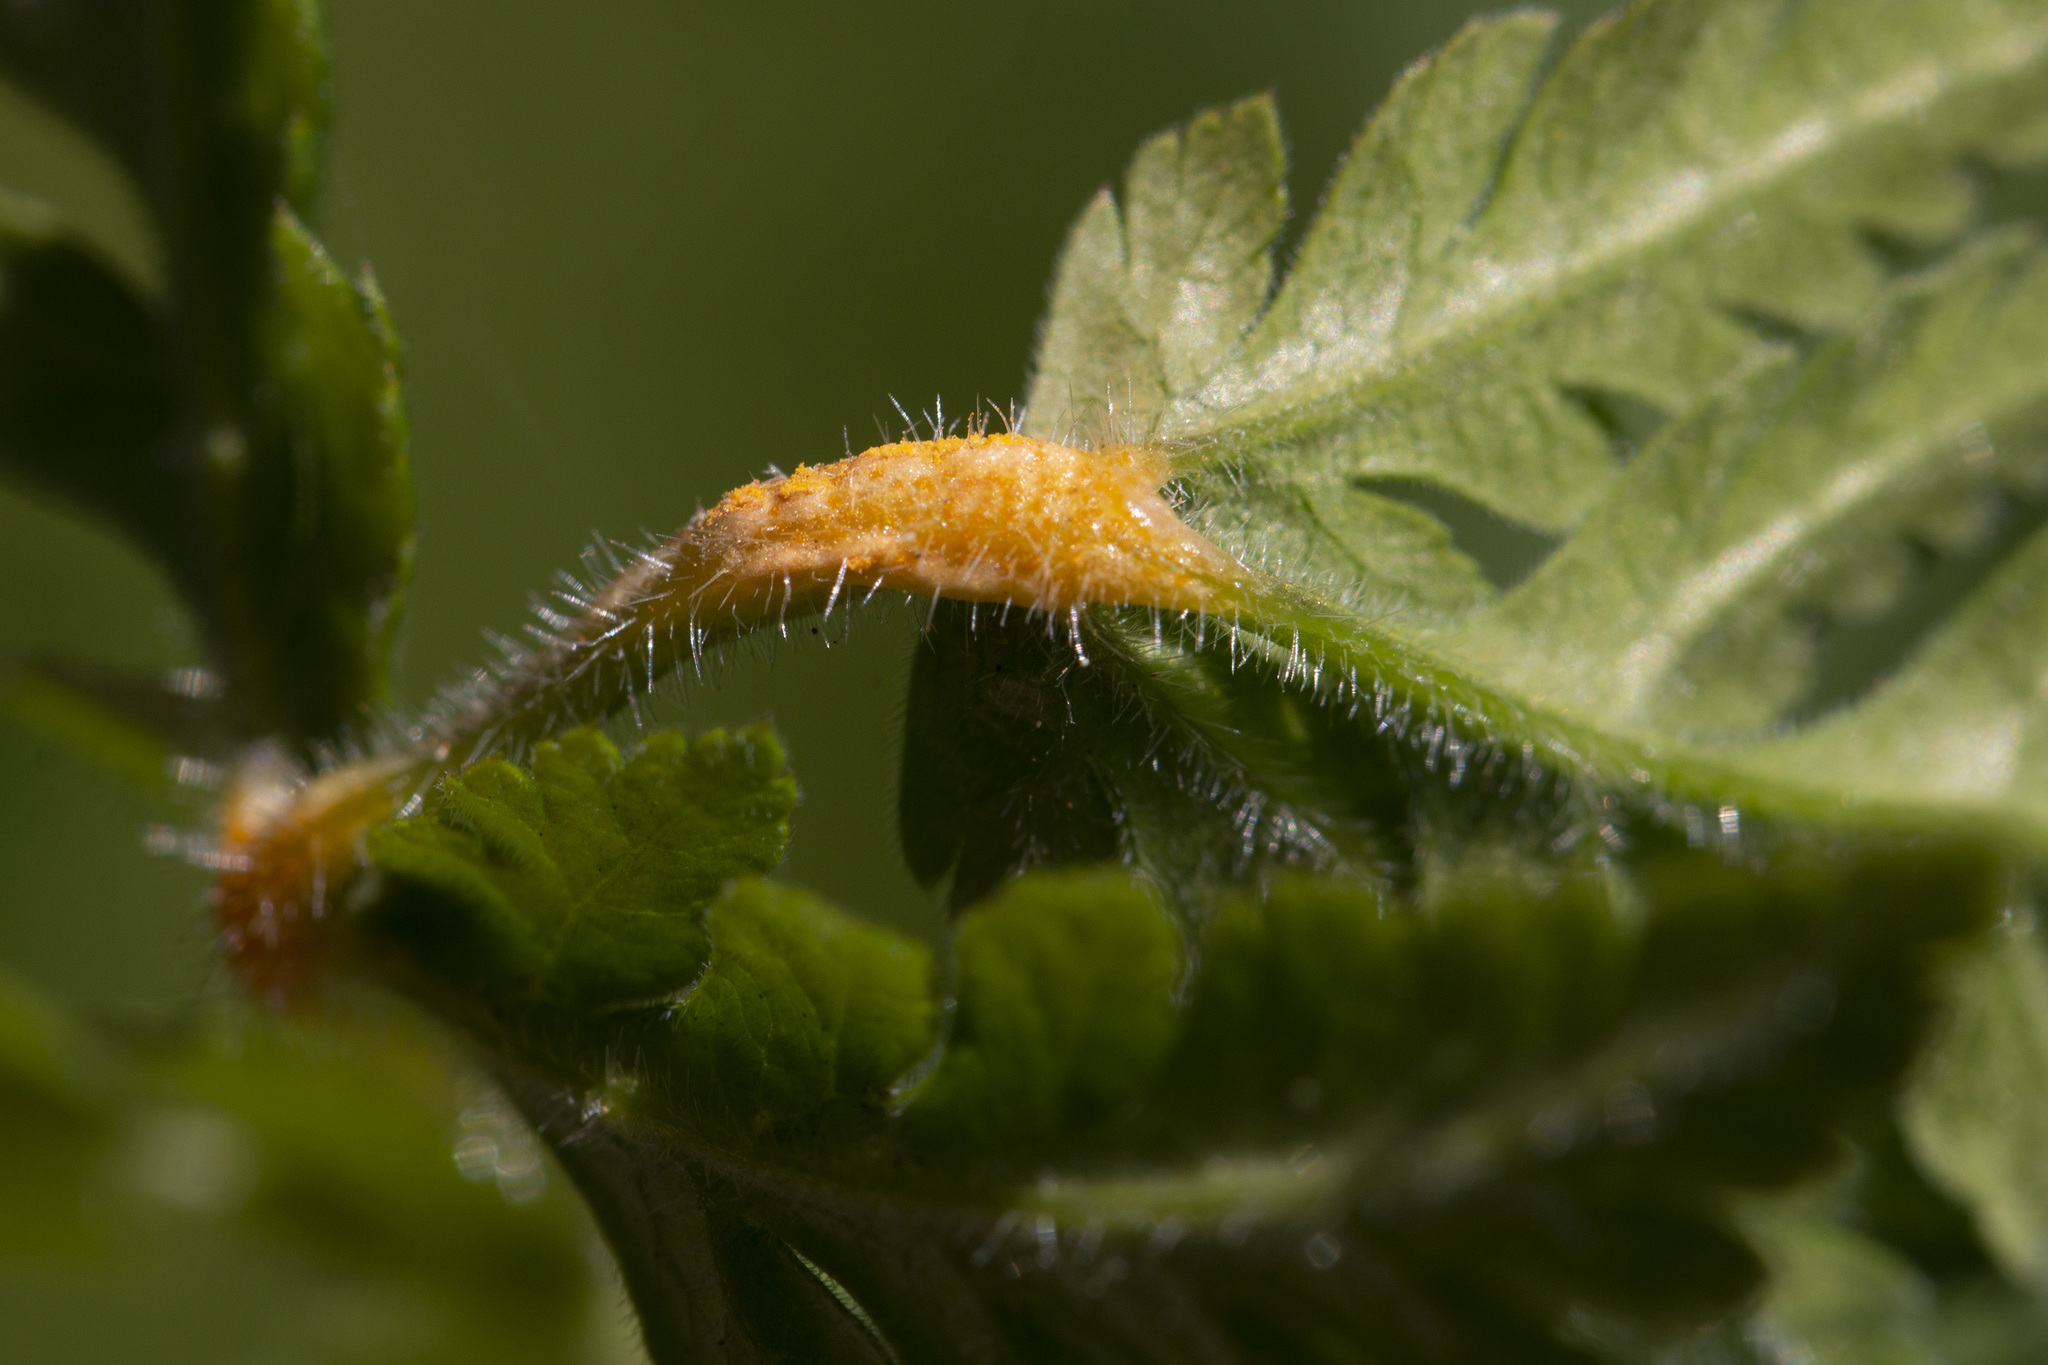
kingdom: Fungi
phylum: Basidiomycota
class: Pucciniomycetes
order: Pucciniales
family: Pucciniaceae
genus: Puccinia
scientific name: Puccinia chaerophylli
